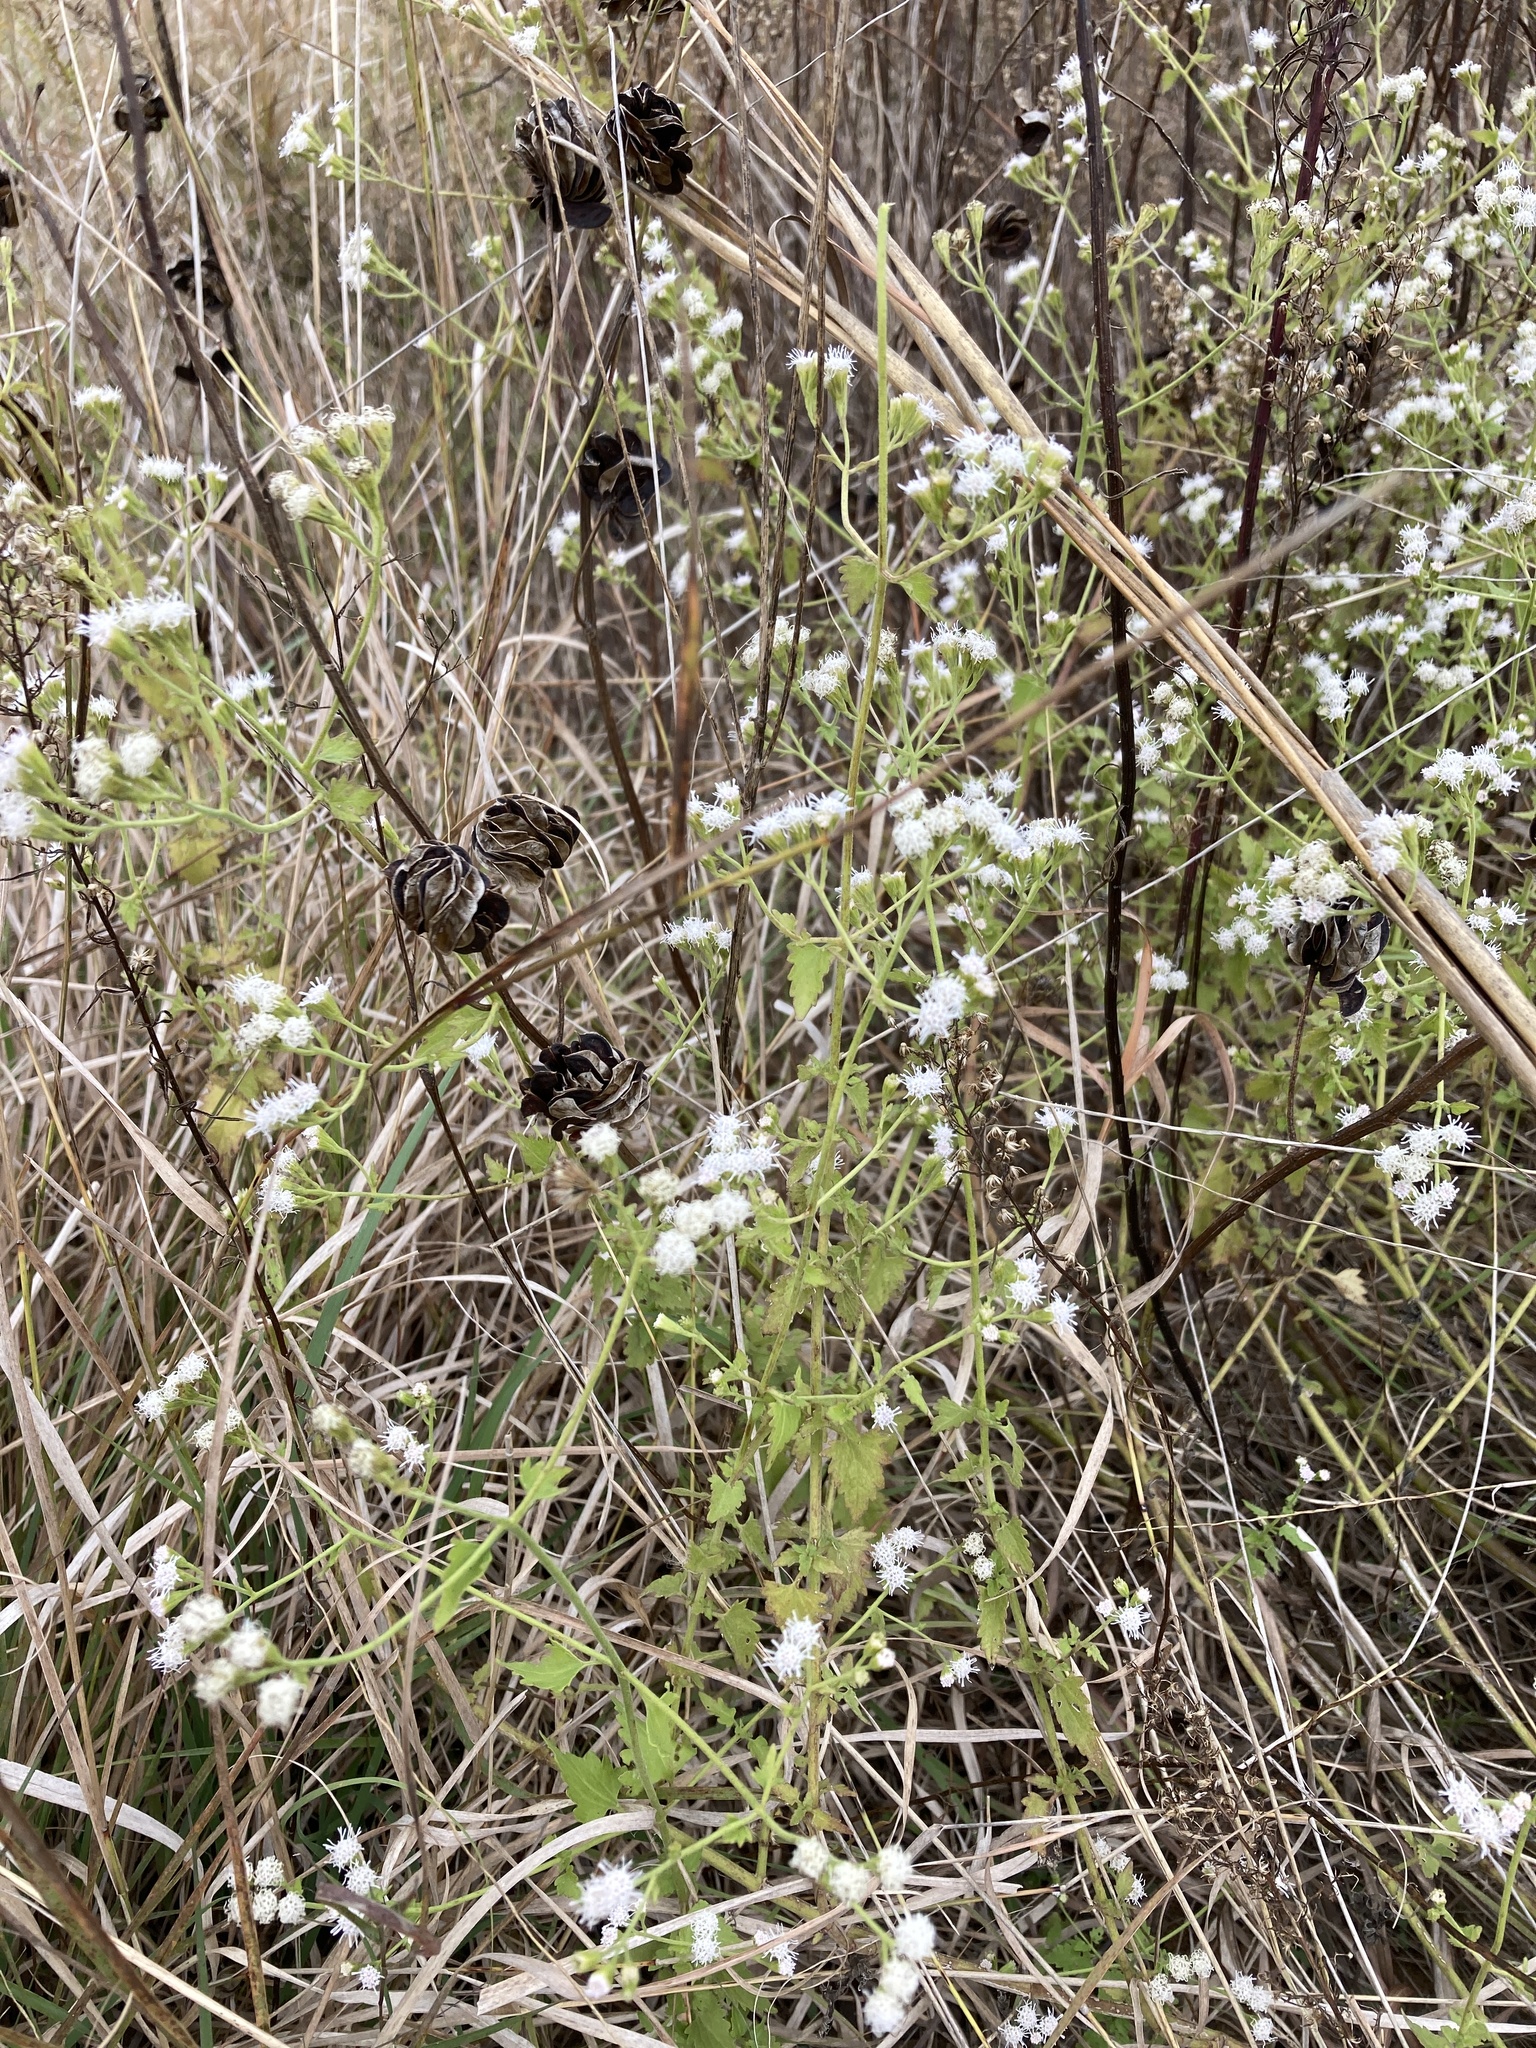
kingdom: Plantae
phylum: Tracheophyta
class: Magnoliopsida
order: Asterales
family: Asteraceae
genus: Fleischmannia
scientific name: Fleischmannia incarnata
